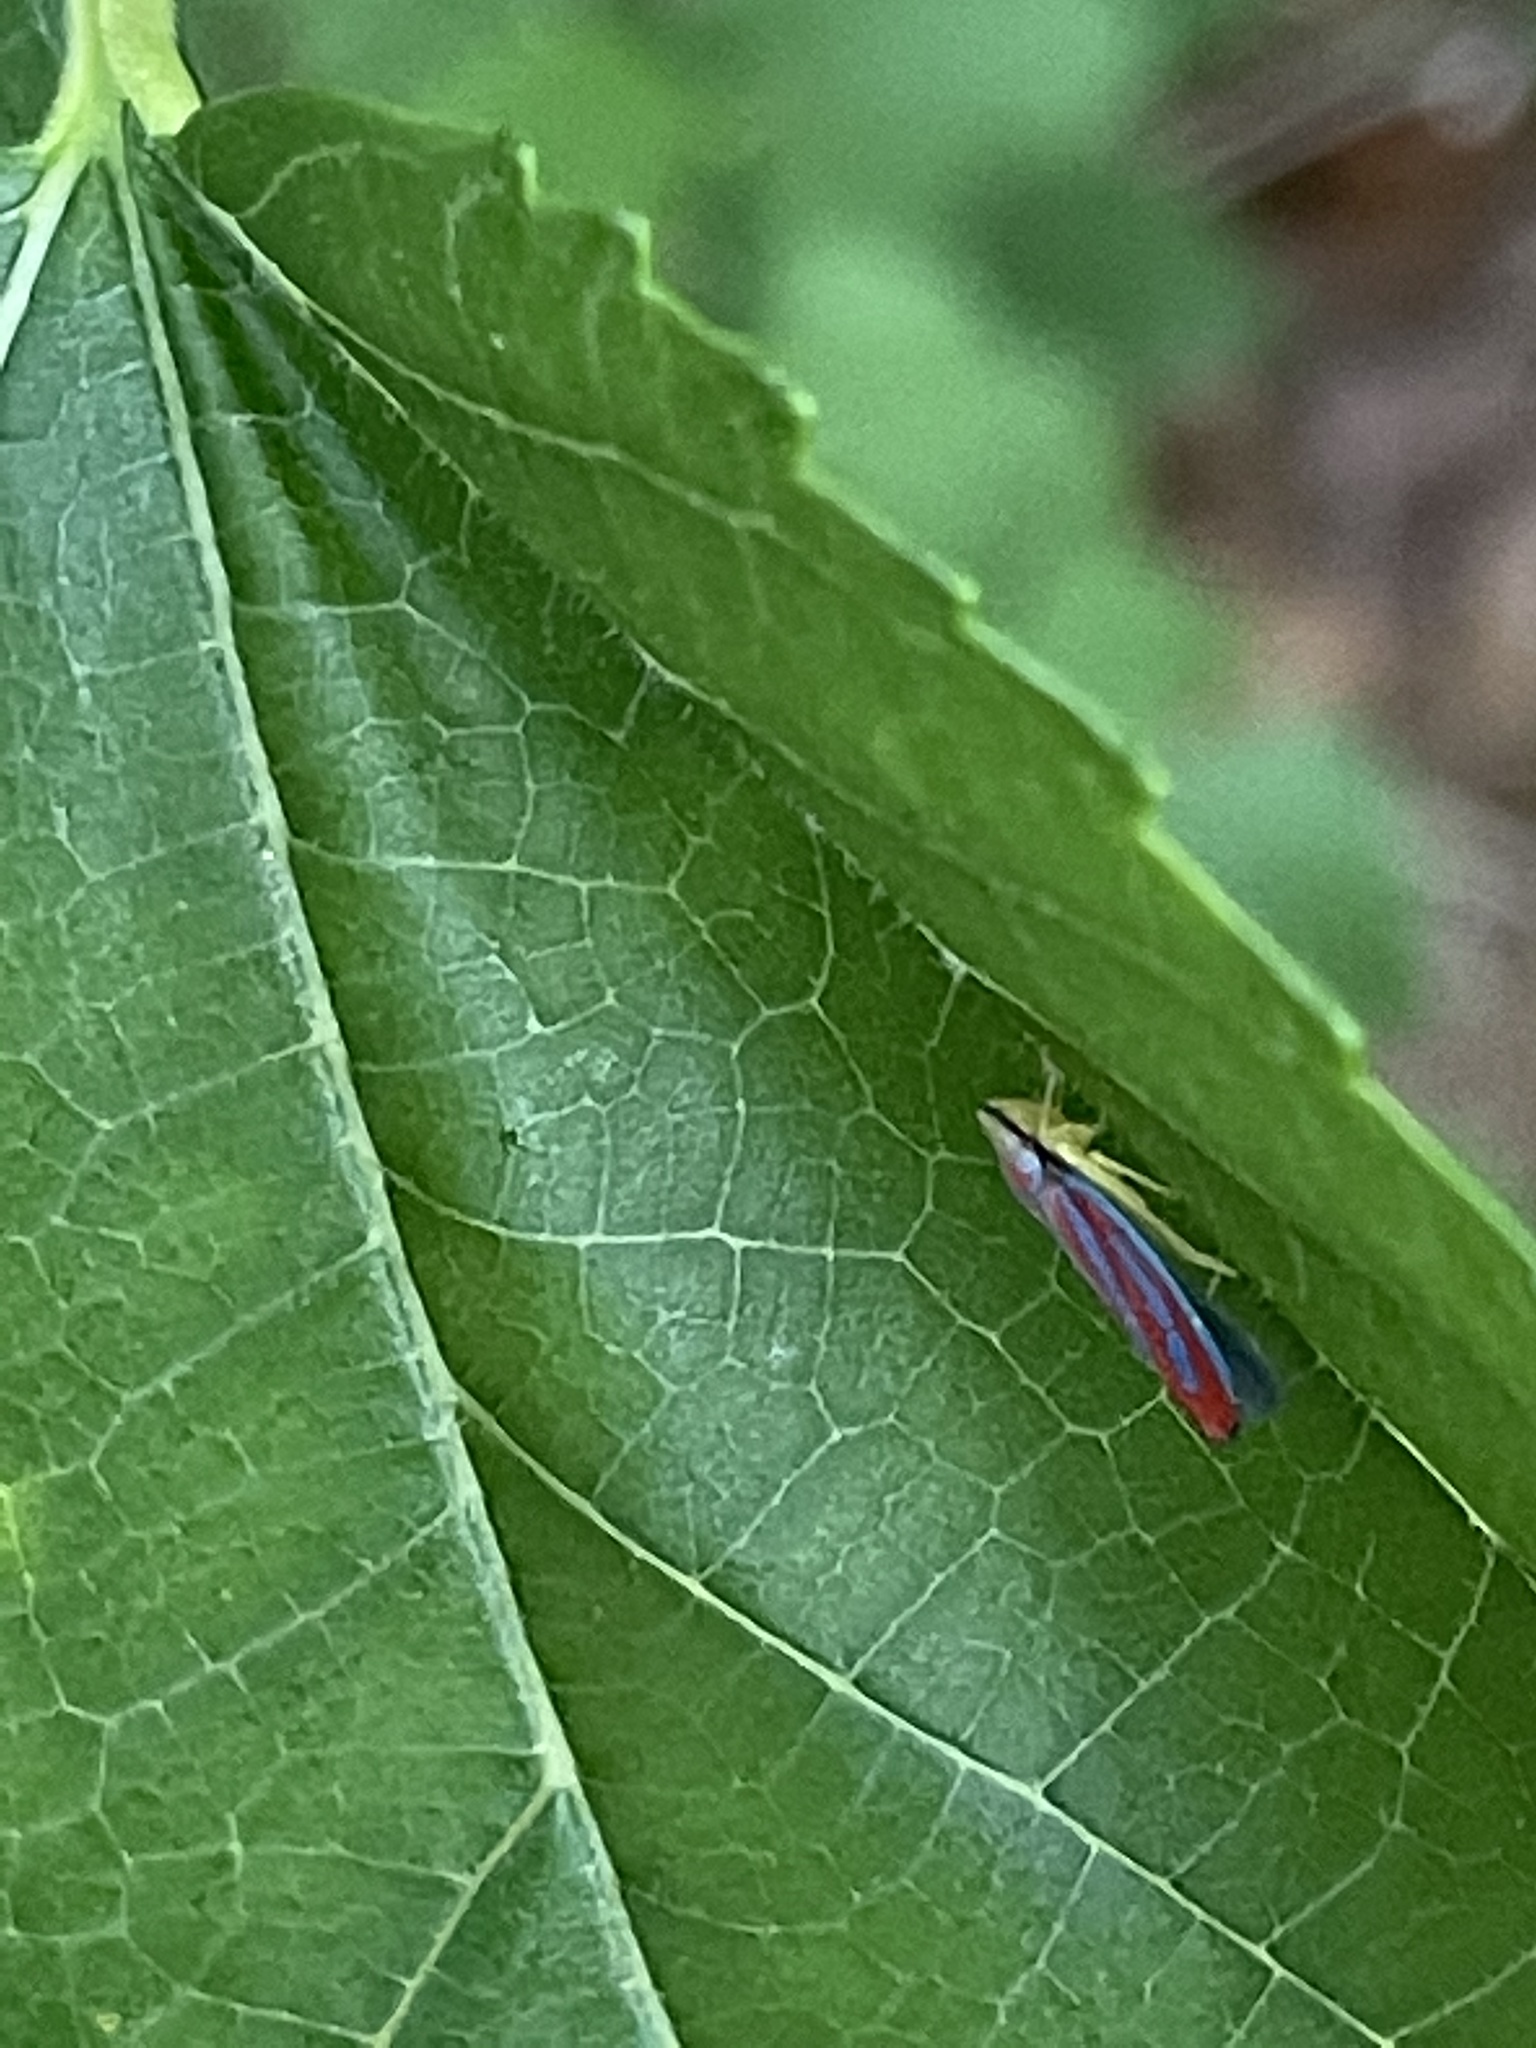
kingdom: Animalia
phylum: Arthropoda
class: Insecta
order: Hemiptera
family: Cicadellidae
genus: Graphocephala
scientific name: Graphocephala coccinea
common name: Candy-striped leafhopper
